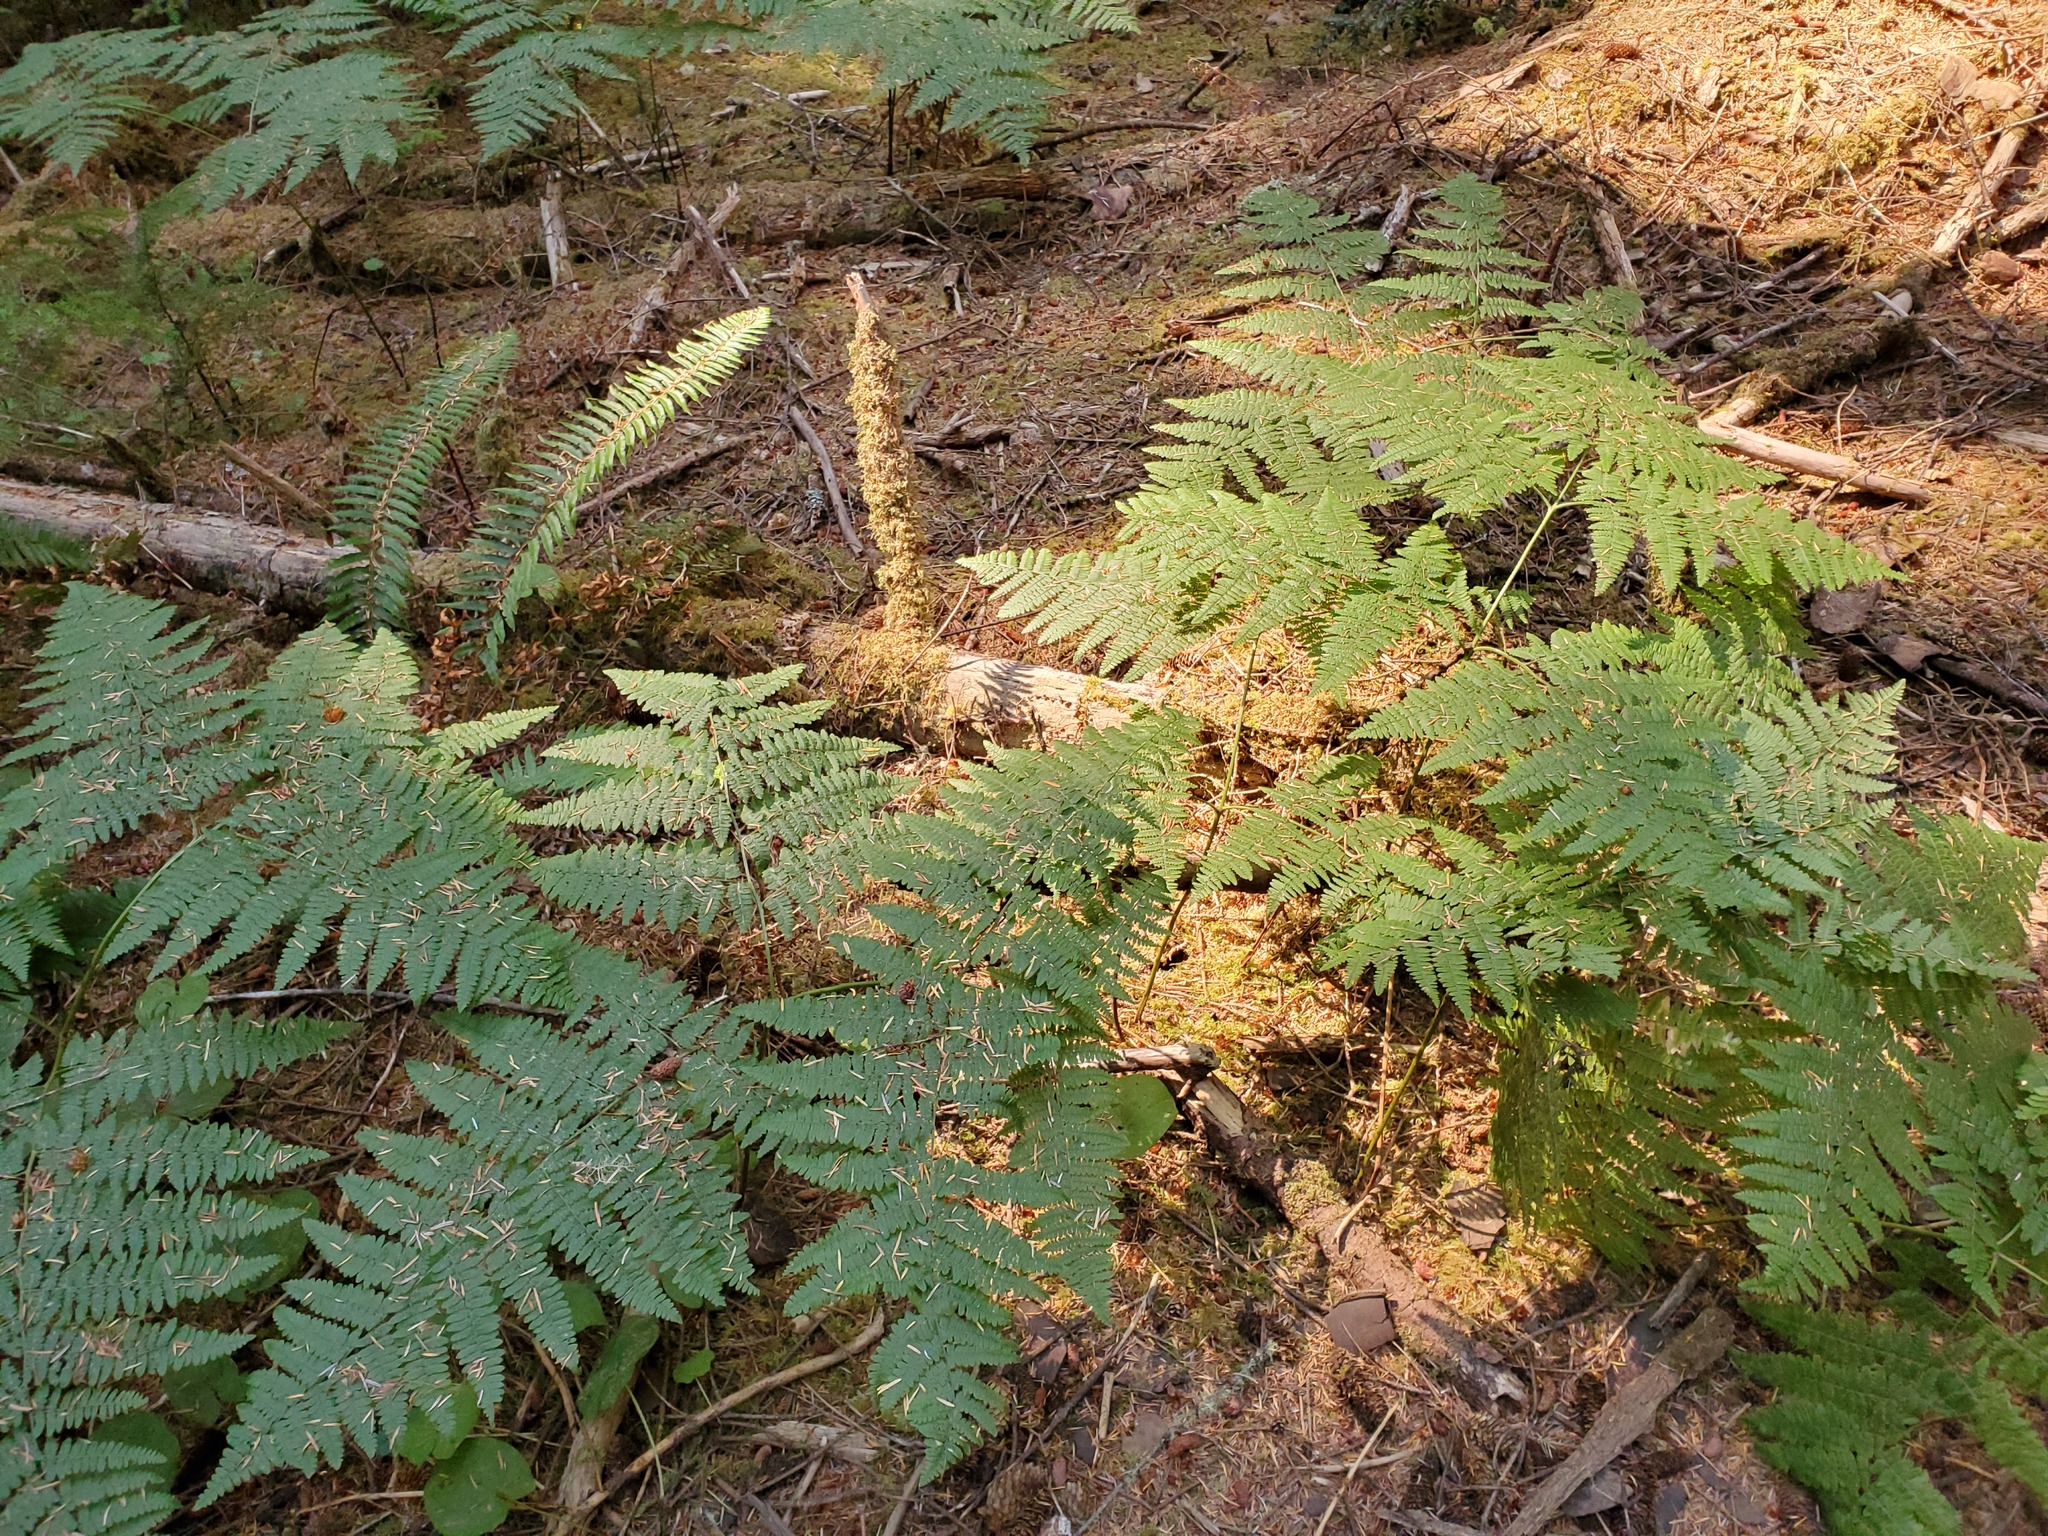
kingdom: Plantae
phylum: Tracheophyta
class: Polypodiopsida
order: Polypodiales
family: Dennstaedtiaceae
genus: Pteridium
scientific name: Pteridium aquilinum
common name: Bracken
